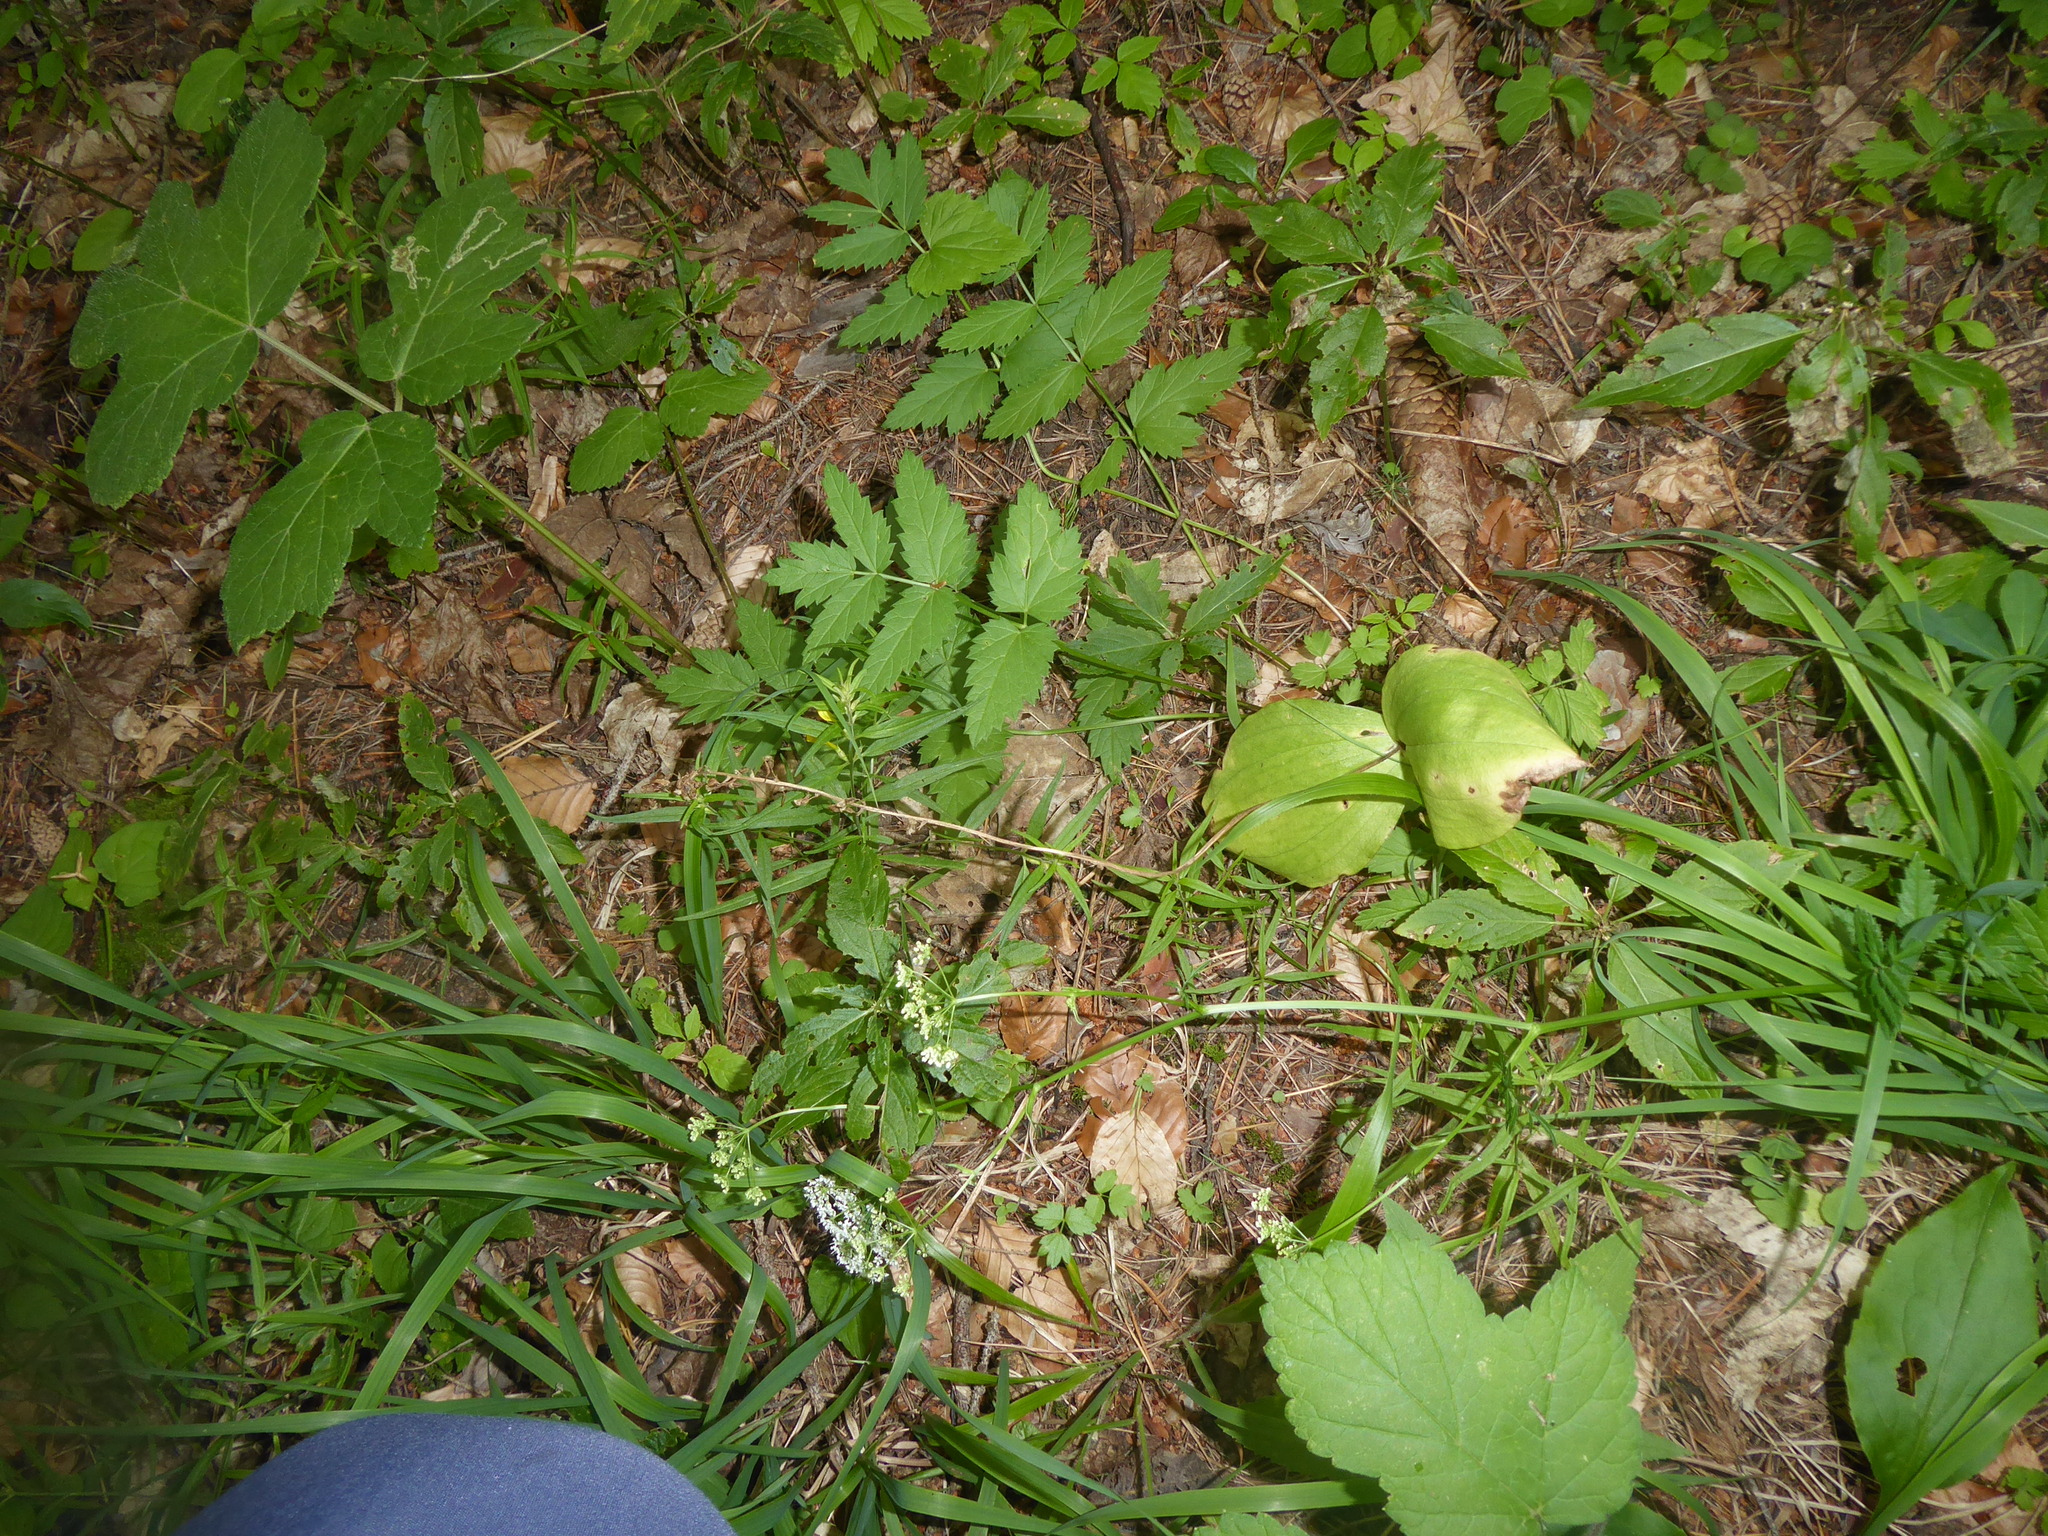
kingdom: Plantae
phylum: Tracheophyta
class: Liliopsida
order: Asparagales
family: Orchidaceae
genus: Neottia
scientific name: Neottia ovata
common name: Common twayblade
